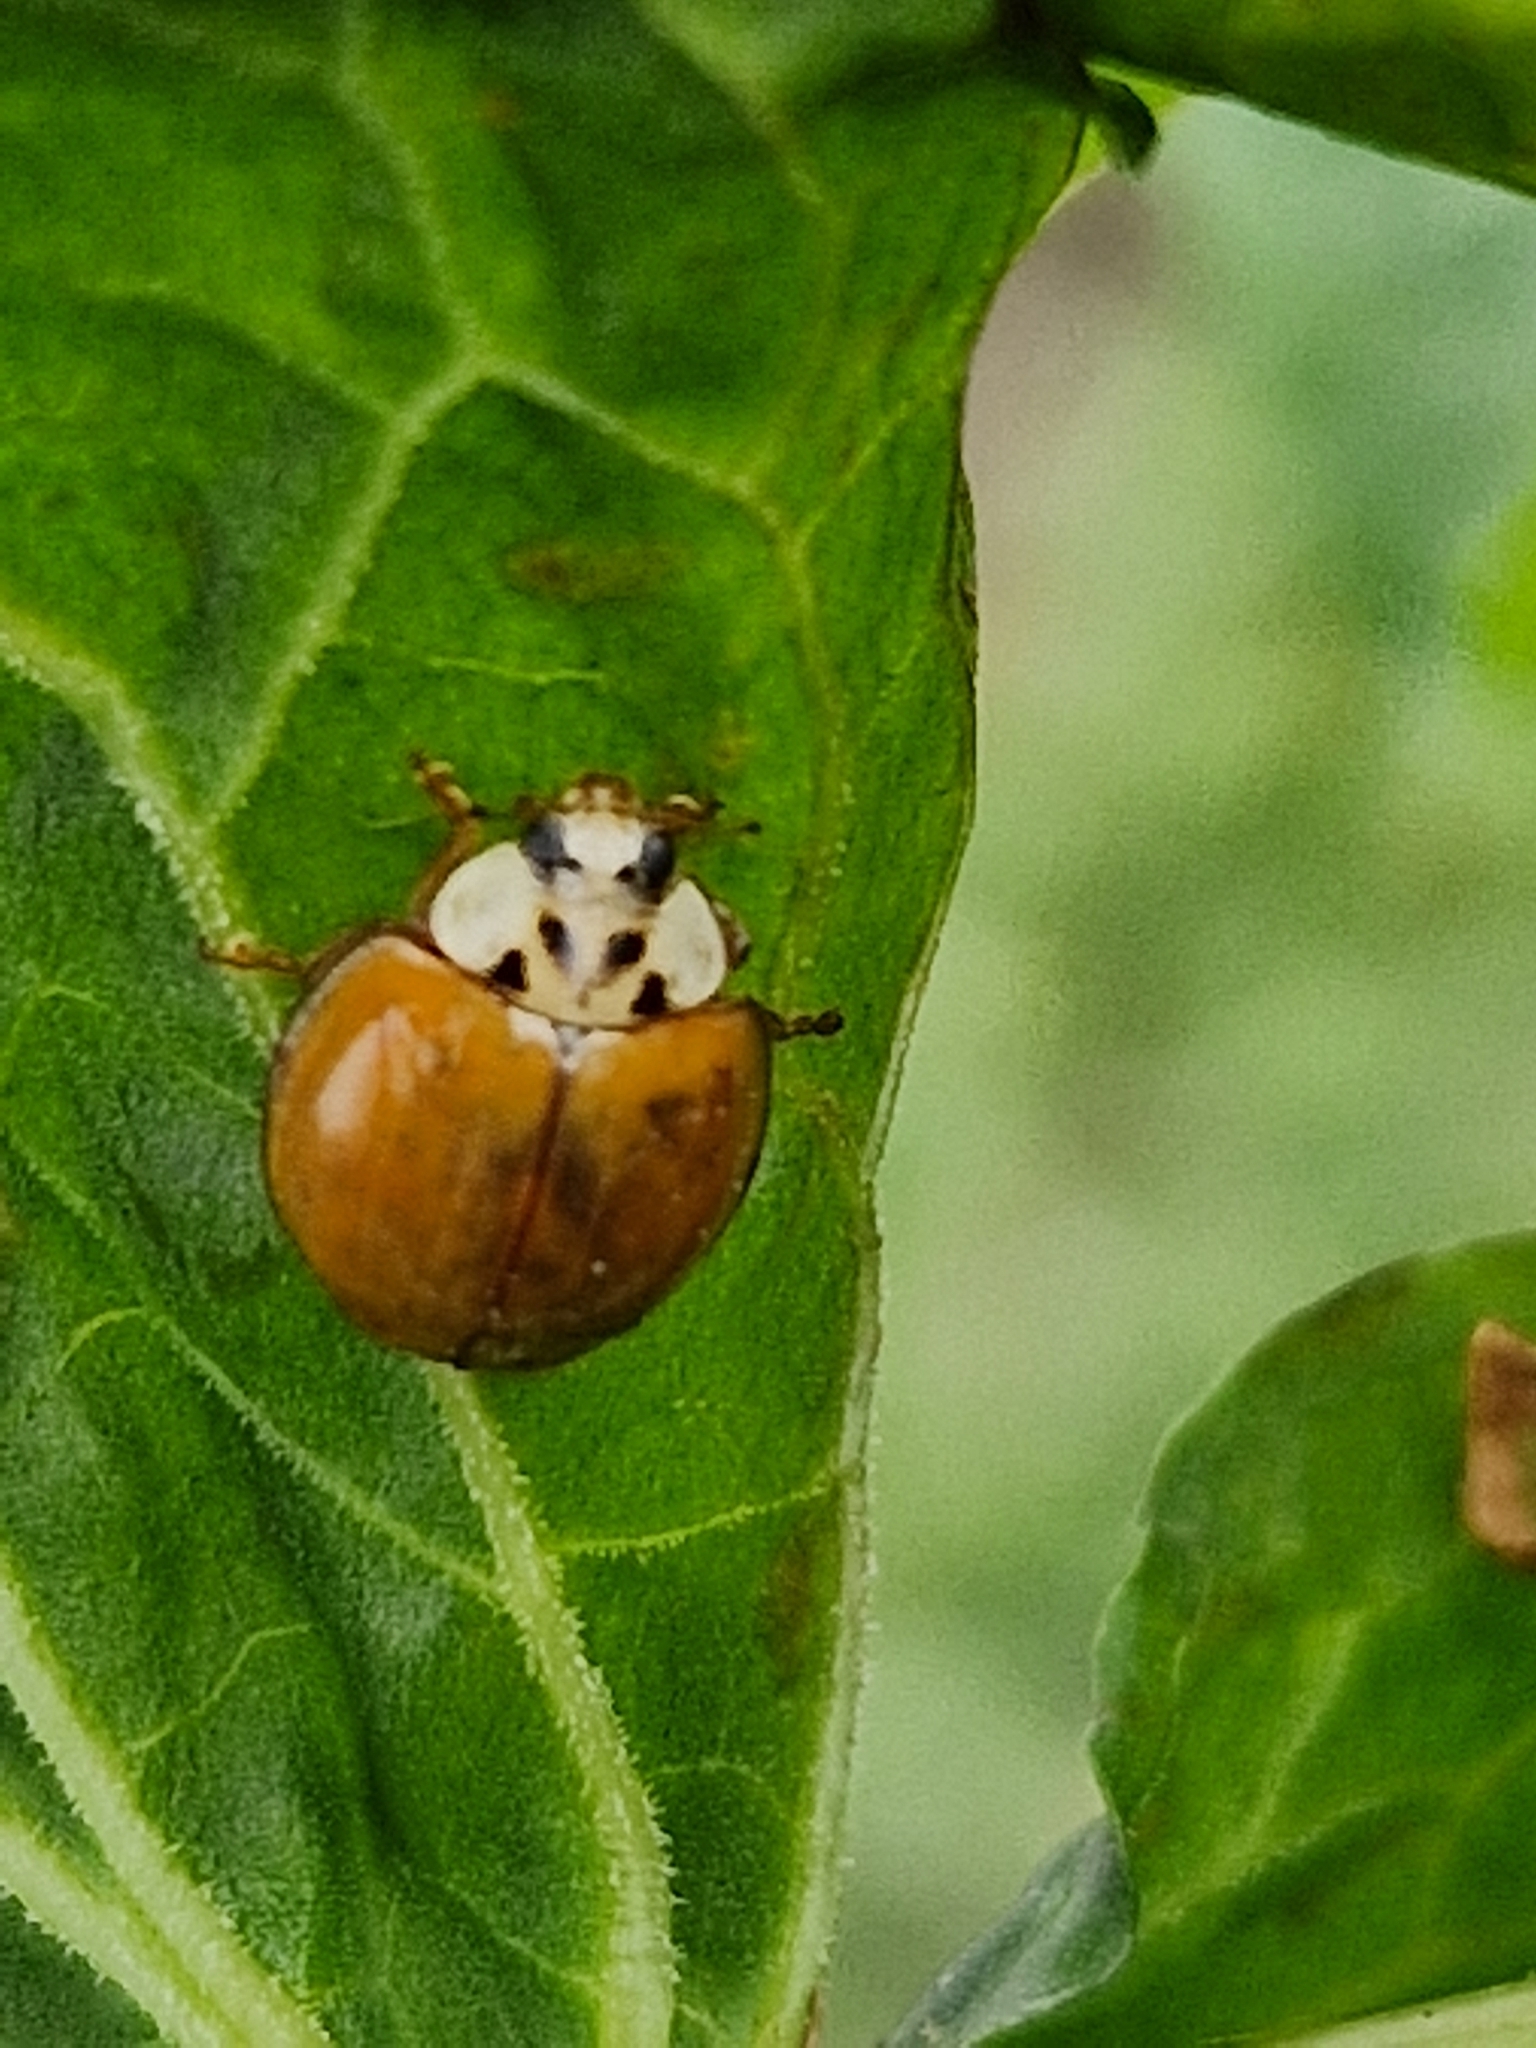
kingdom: Animalia
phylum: Arthropoda
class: Insecta
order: Coleoptera
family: Coccinellidae
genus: Harmonia
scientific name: Harmonia axyridis
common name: Harlequin ladybird
